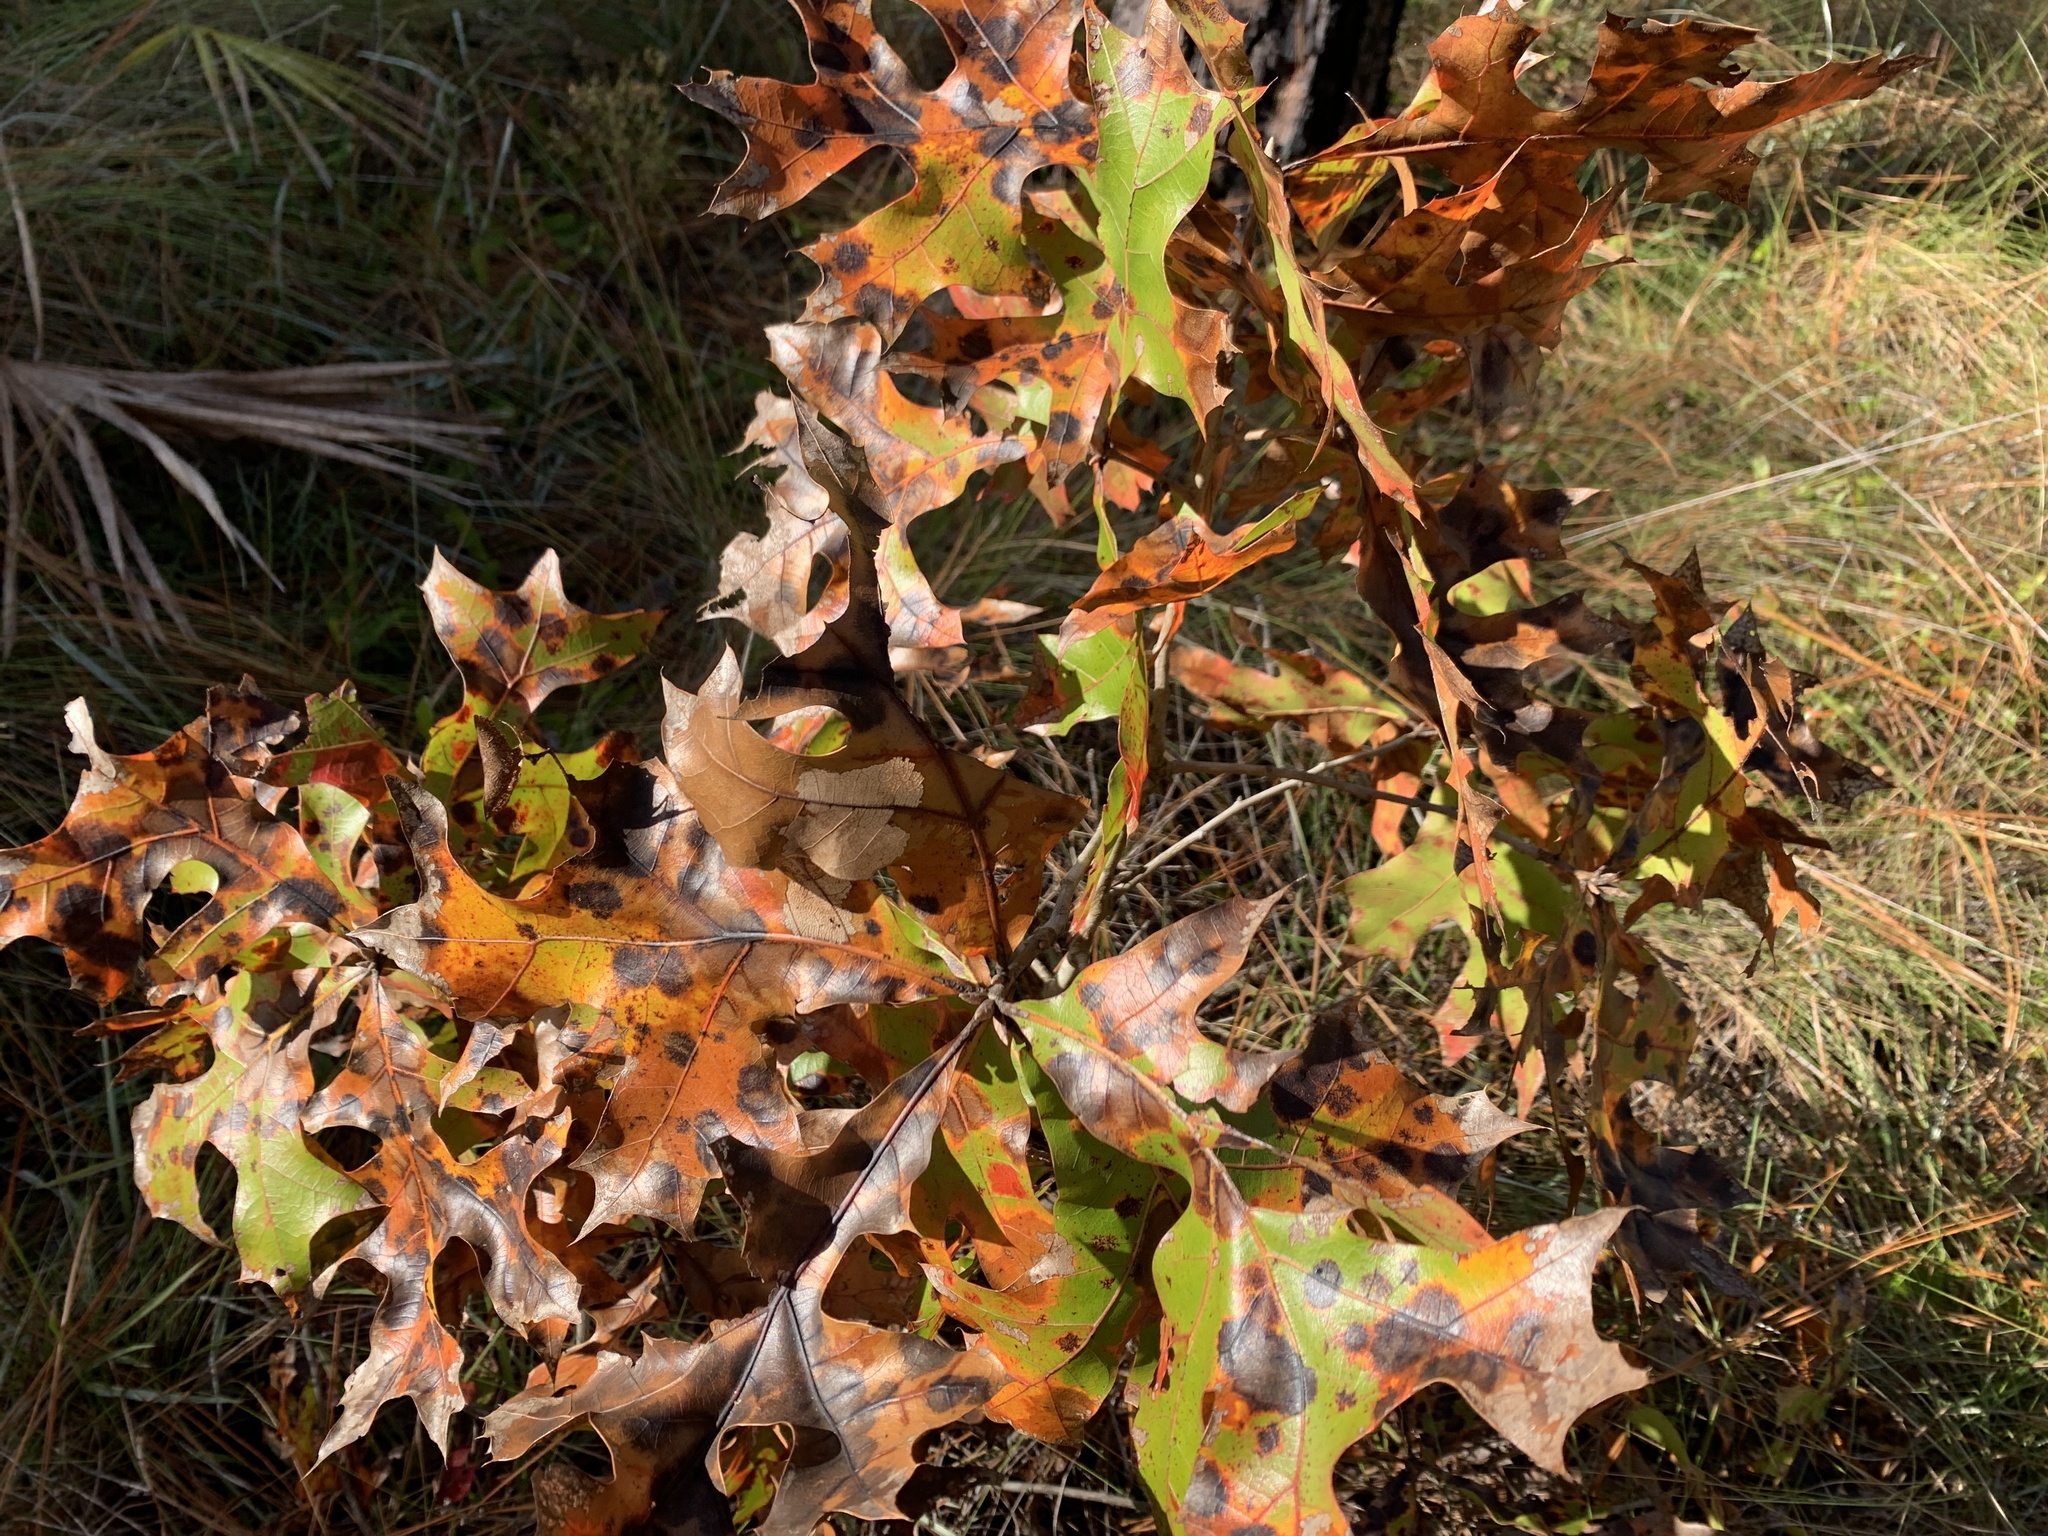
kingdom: Plantae
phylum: Tracheophyta
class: Magnoliopsida
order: Fagales
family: Fagaceae
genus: Quercus
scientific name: Quercus laevis
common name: Turkey oak
